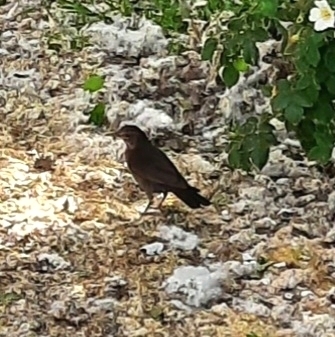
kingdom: Animalia
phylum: Chordata
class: Aves
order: Passeriformes
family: Turdidae
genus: Turdus
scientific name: Turdus merula
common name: Common blackbird
